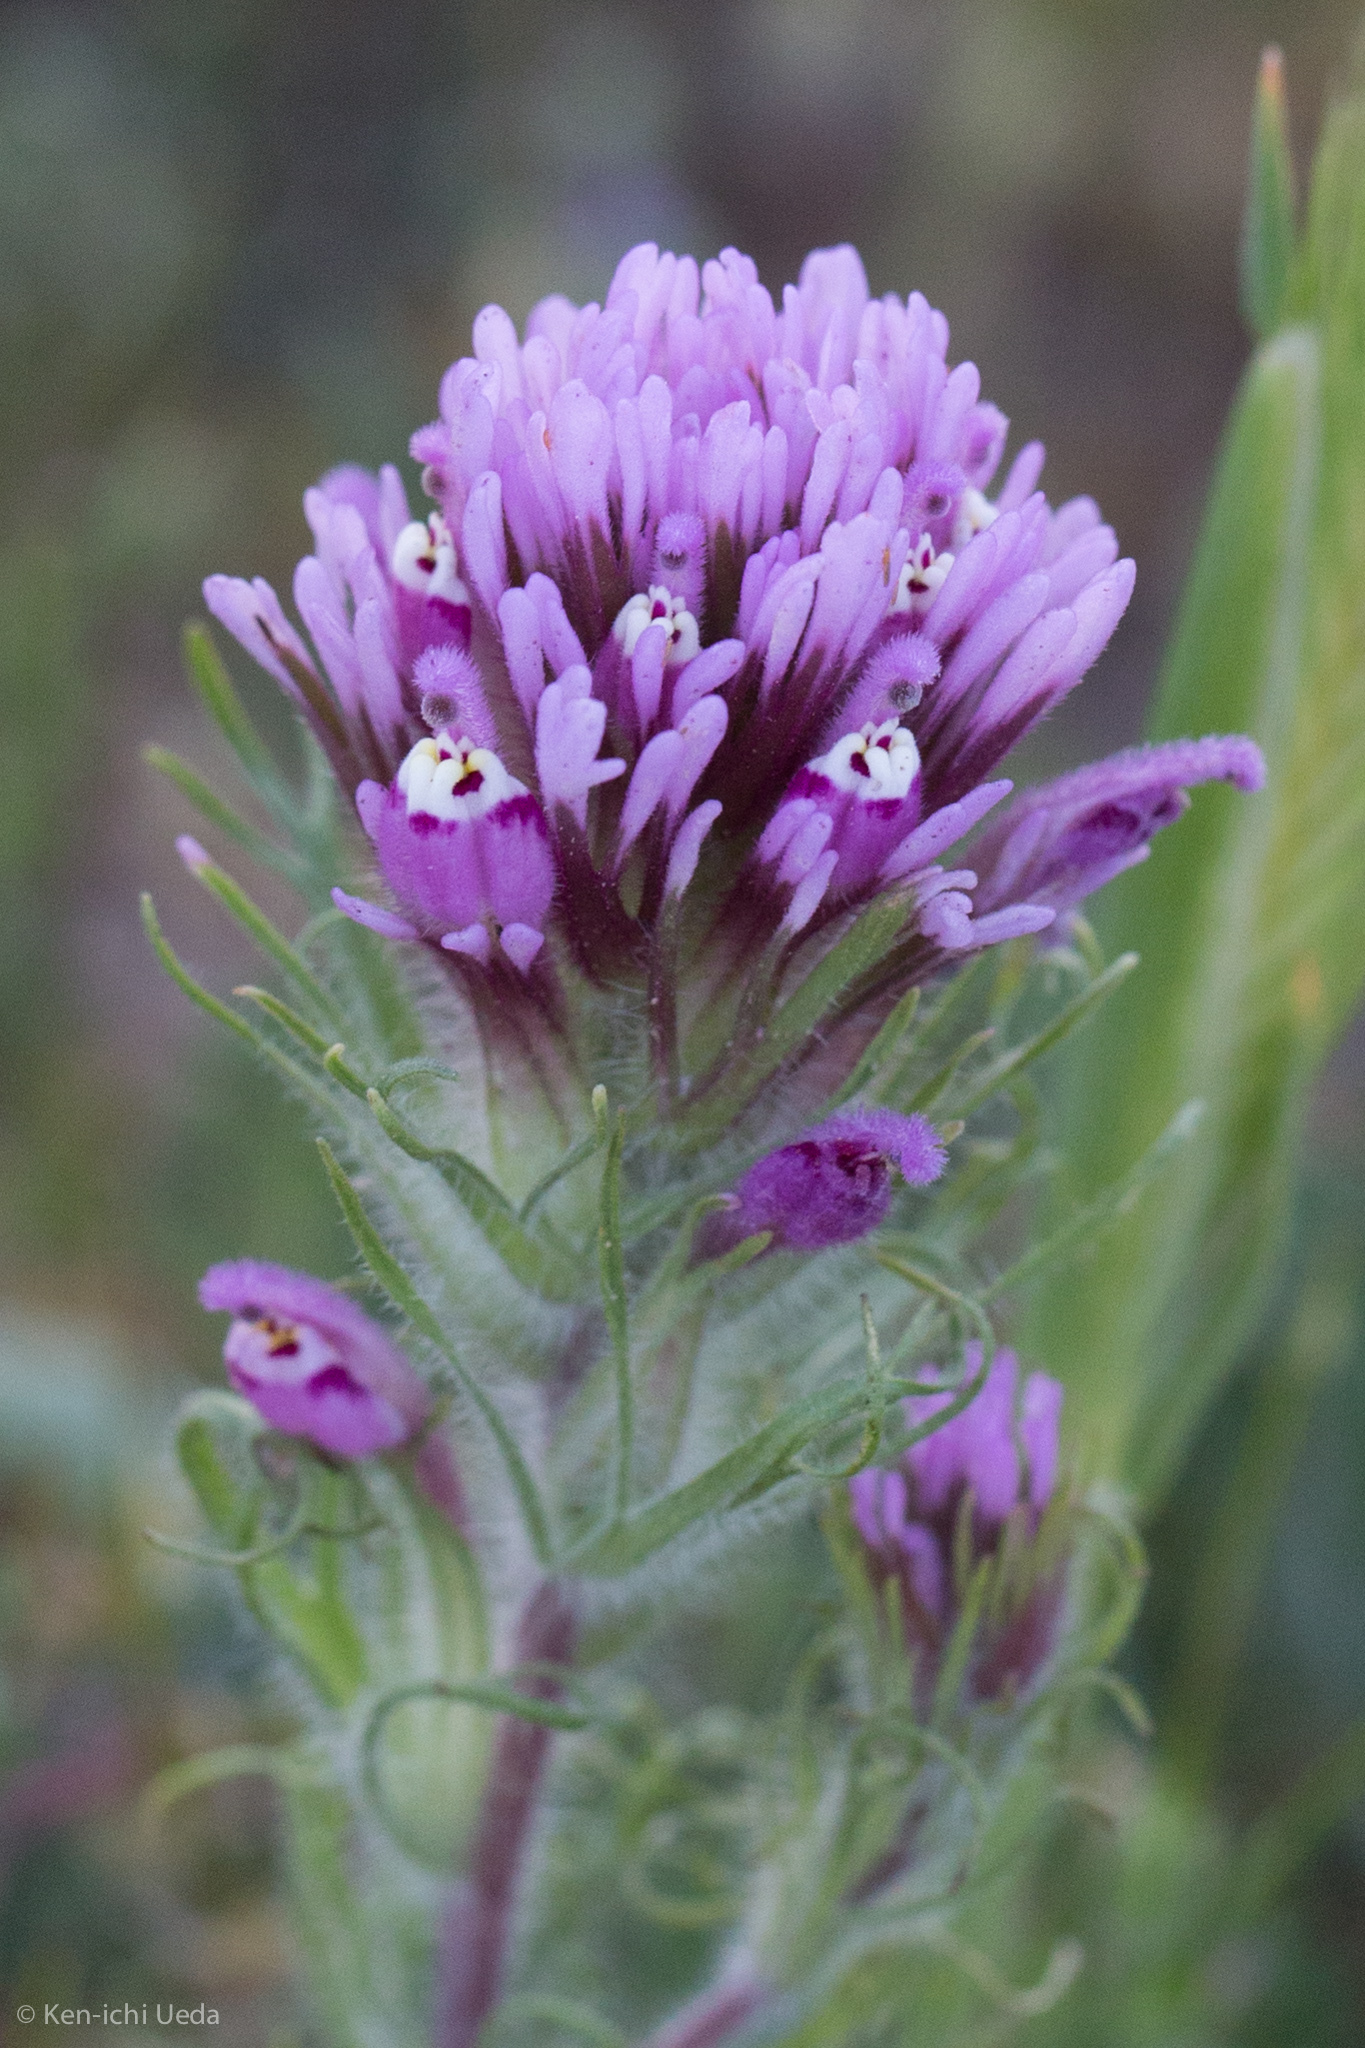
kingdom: Plantae
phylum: Tracheophyta
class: Magnoliopsida
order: Lamiales
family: Orobanchaceae
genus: Castilleja
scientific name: Castilleja exserta
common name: Purple owl-clover
